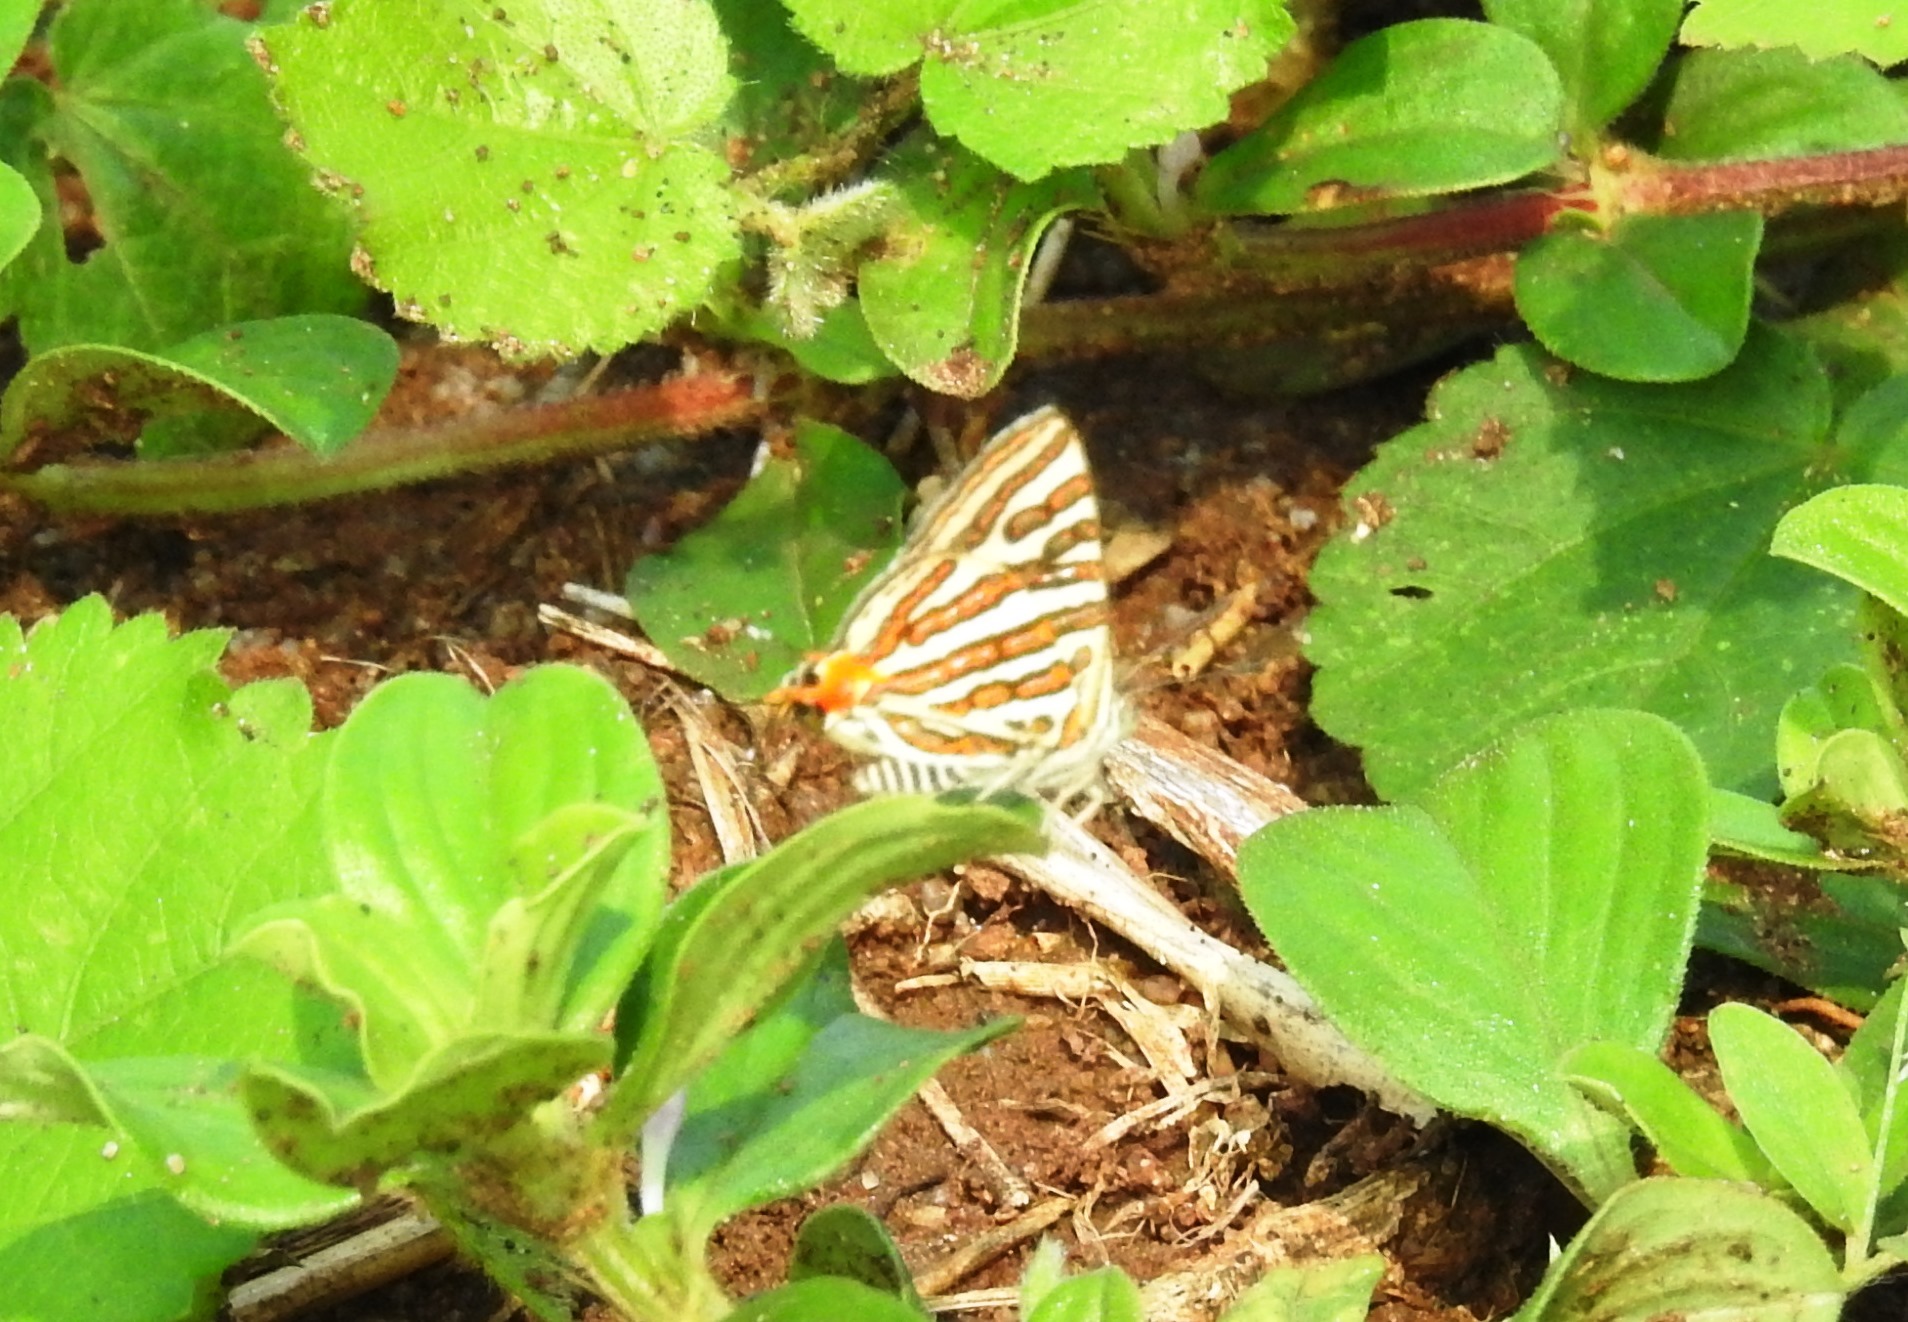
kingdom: Animalia
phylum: Arthropoda
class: Insecta
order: Lepidoptera
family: Lycaenidae
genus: Cigaritis
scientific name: Cigaritis vulcanus
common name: Common silverline
